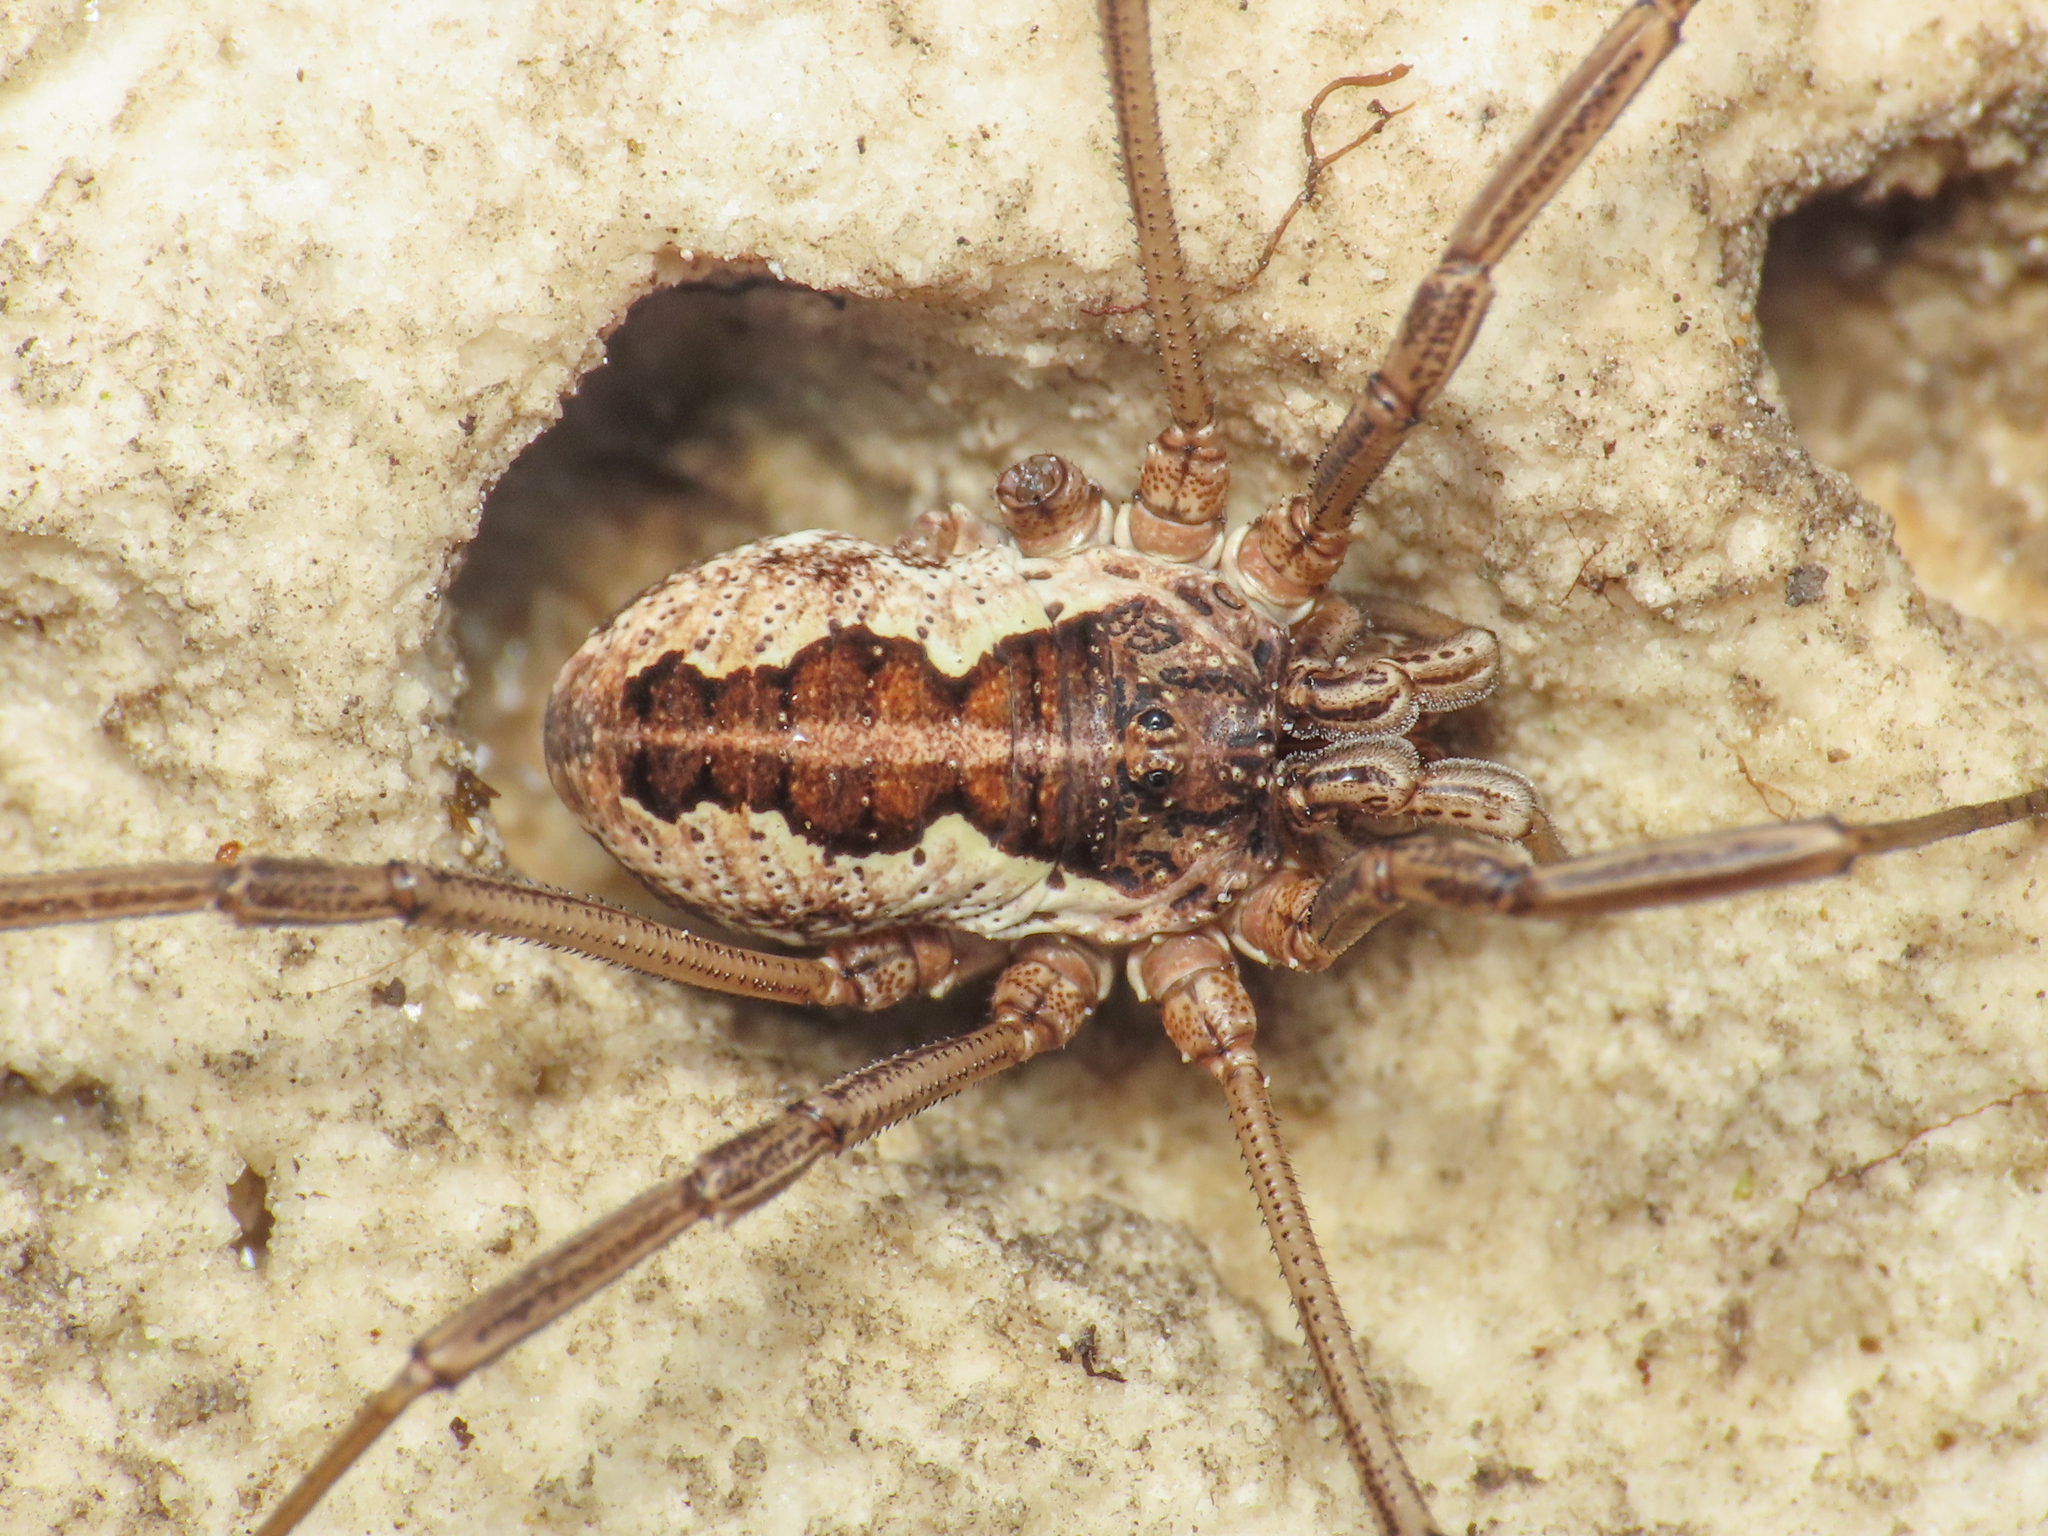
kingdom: Animalia
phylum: Arthropoda
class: Arachnida
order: Opiliones
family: Phalangiidae
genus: Mitopus
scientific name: Mitopus morio
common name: Saddleback harvestman
